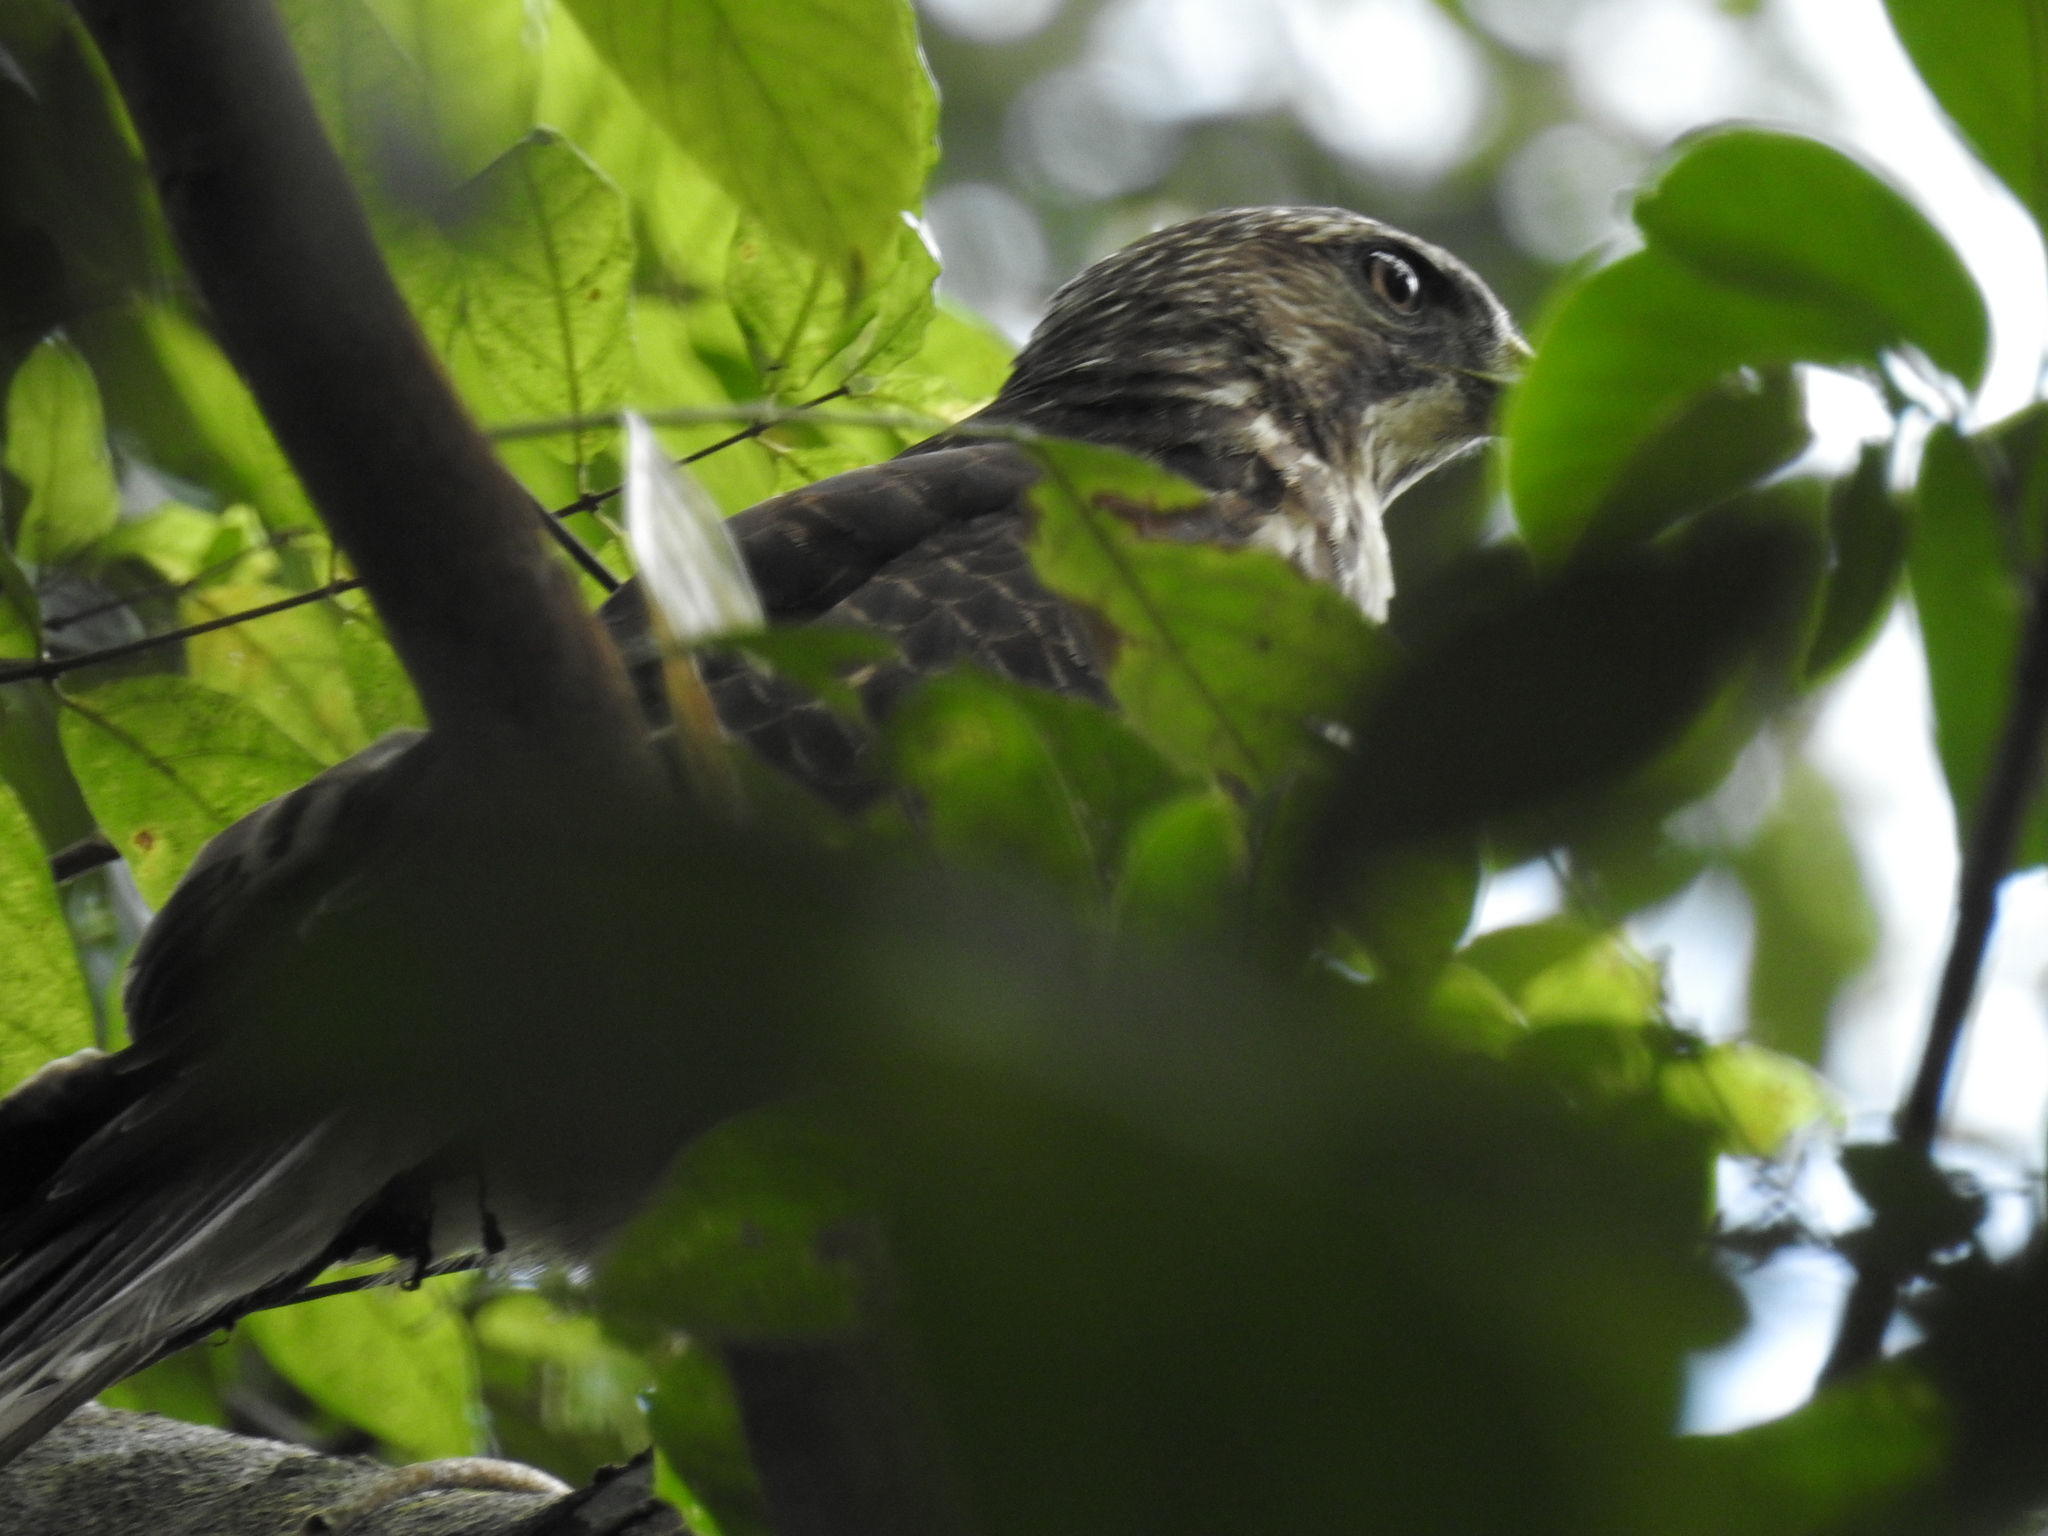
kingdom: Animalia
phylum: Chordata
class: Aves
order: Accipitriformes
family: Accipitridae
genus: Buteo
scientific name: Buteo platypterus
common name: Broad-winged hawk
